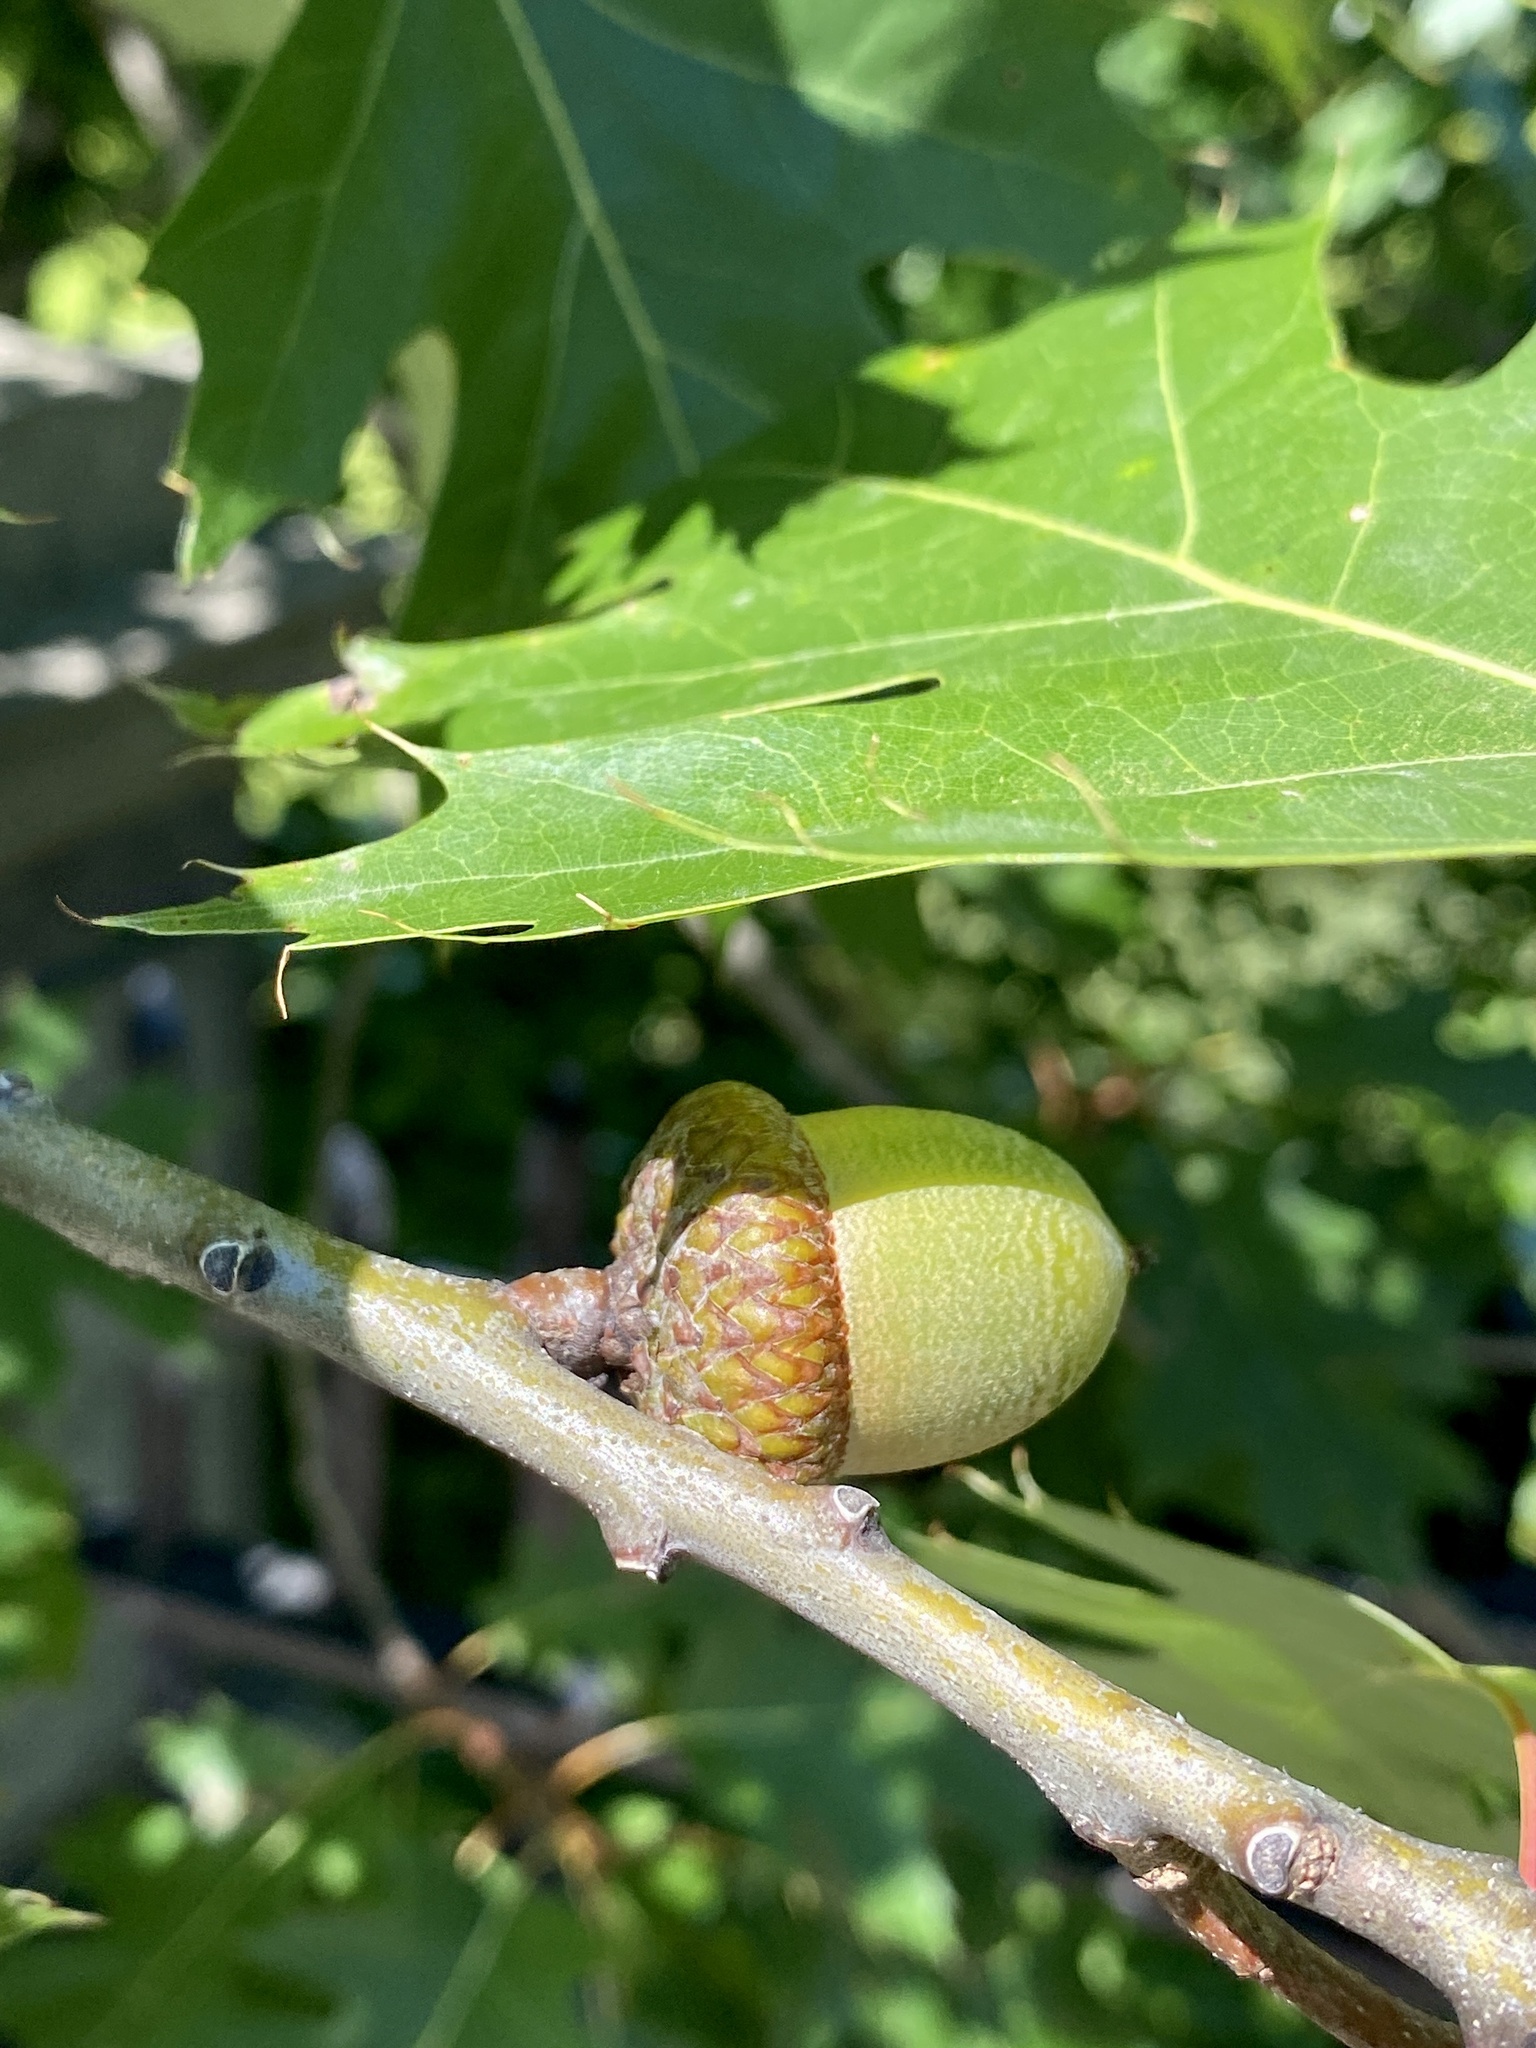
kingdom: Plantae
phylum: Tracheophyta
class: Magnoliopsida
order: Fagales
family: Fagaceae
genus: Quercus
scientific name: Quercus rubra
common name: Red oak
